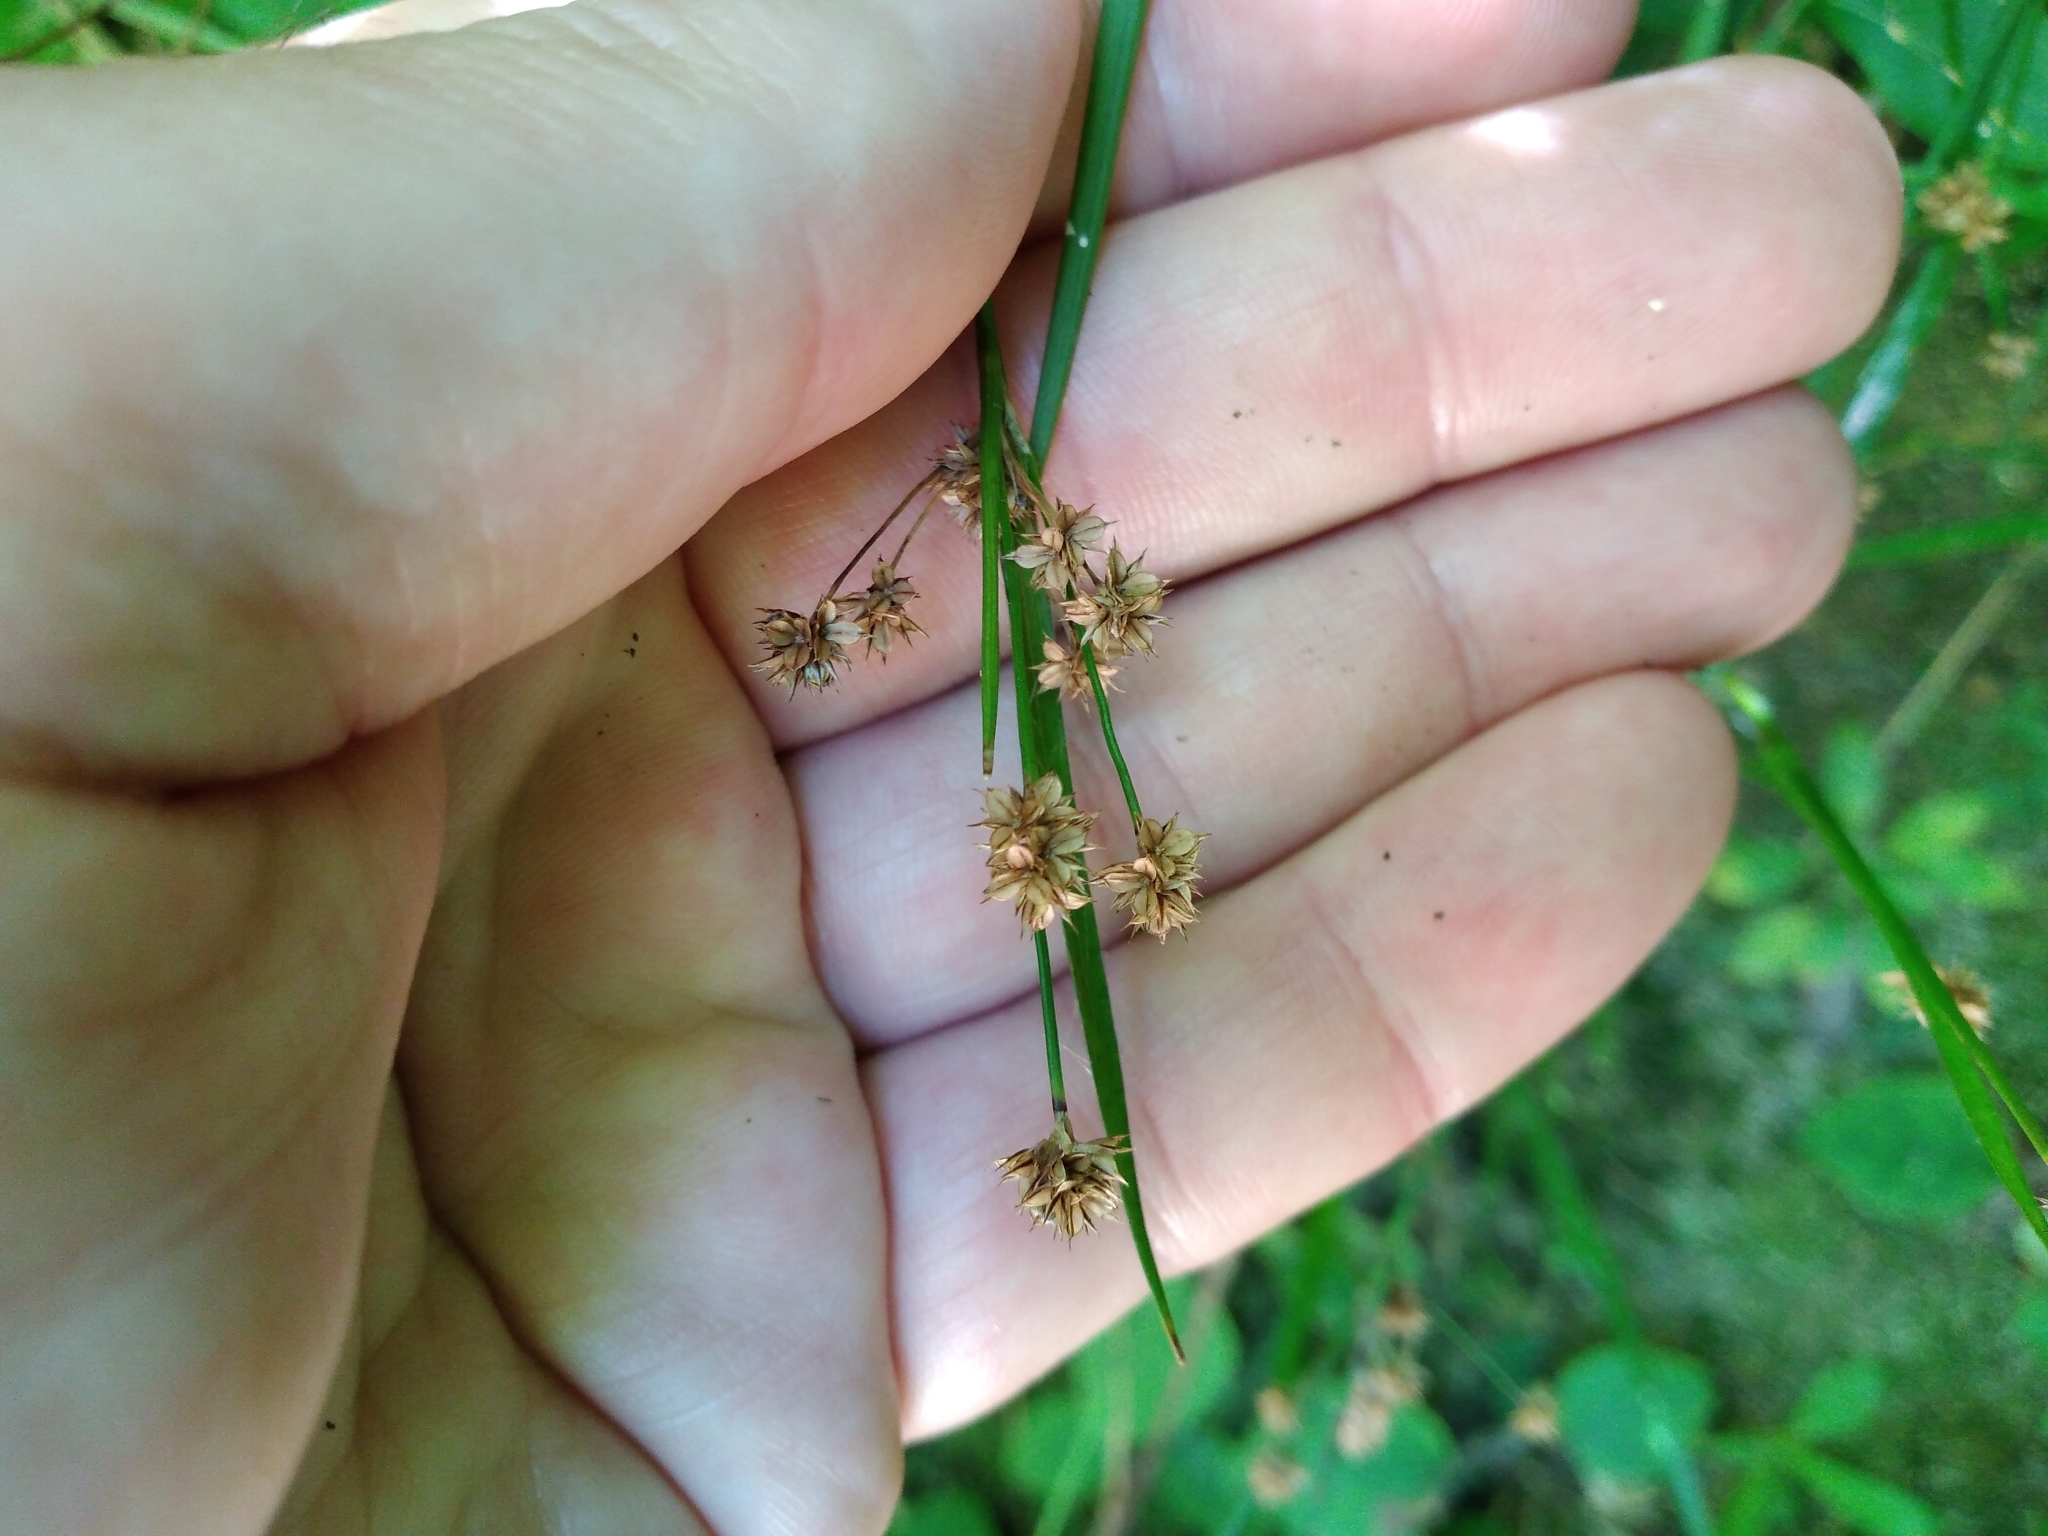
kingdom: Plantae
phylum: Tracheophyta
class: Liliopsida
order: Poales
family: Juncaceae
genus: Luzula
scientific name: Luzula picta
